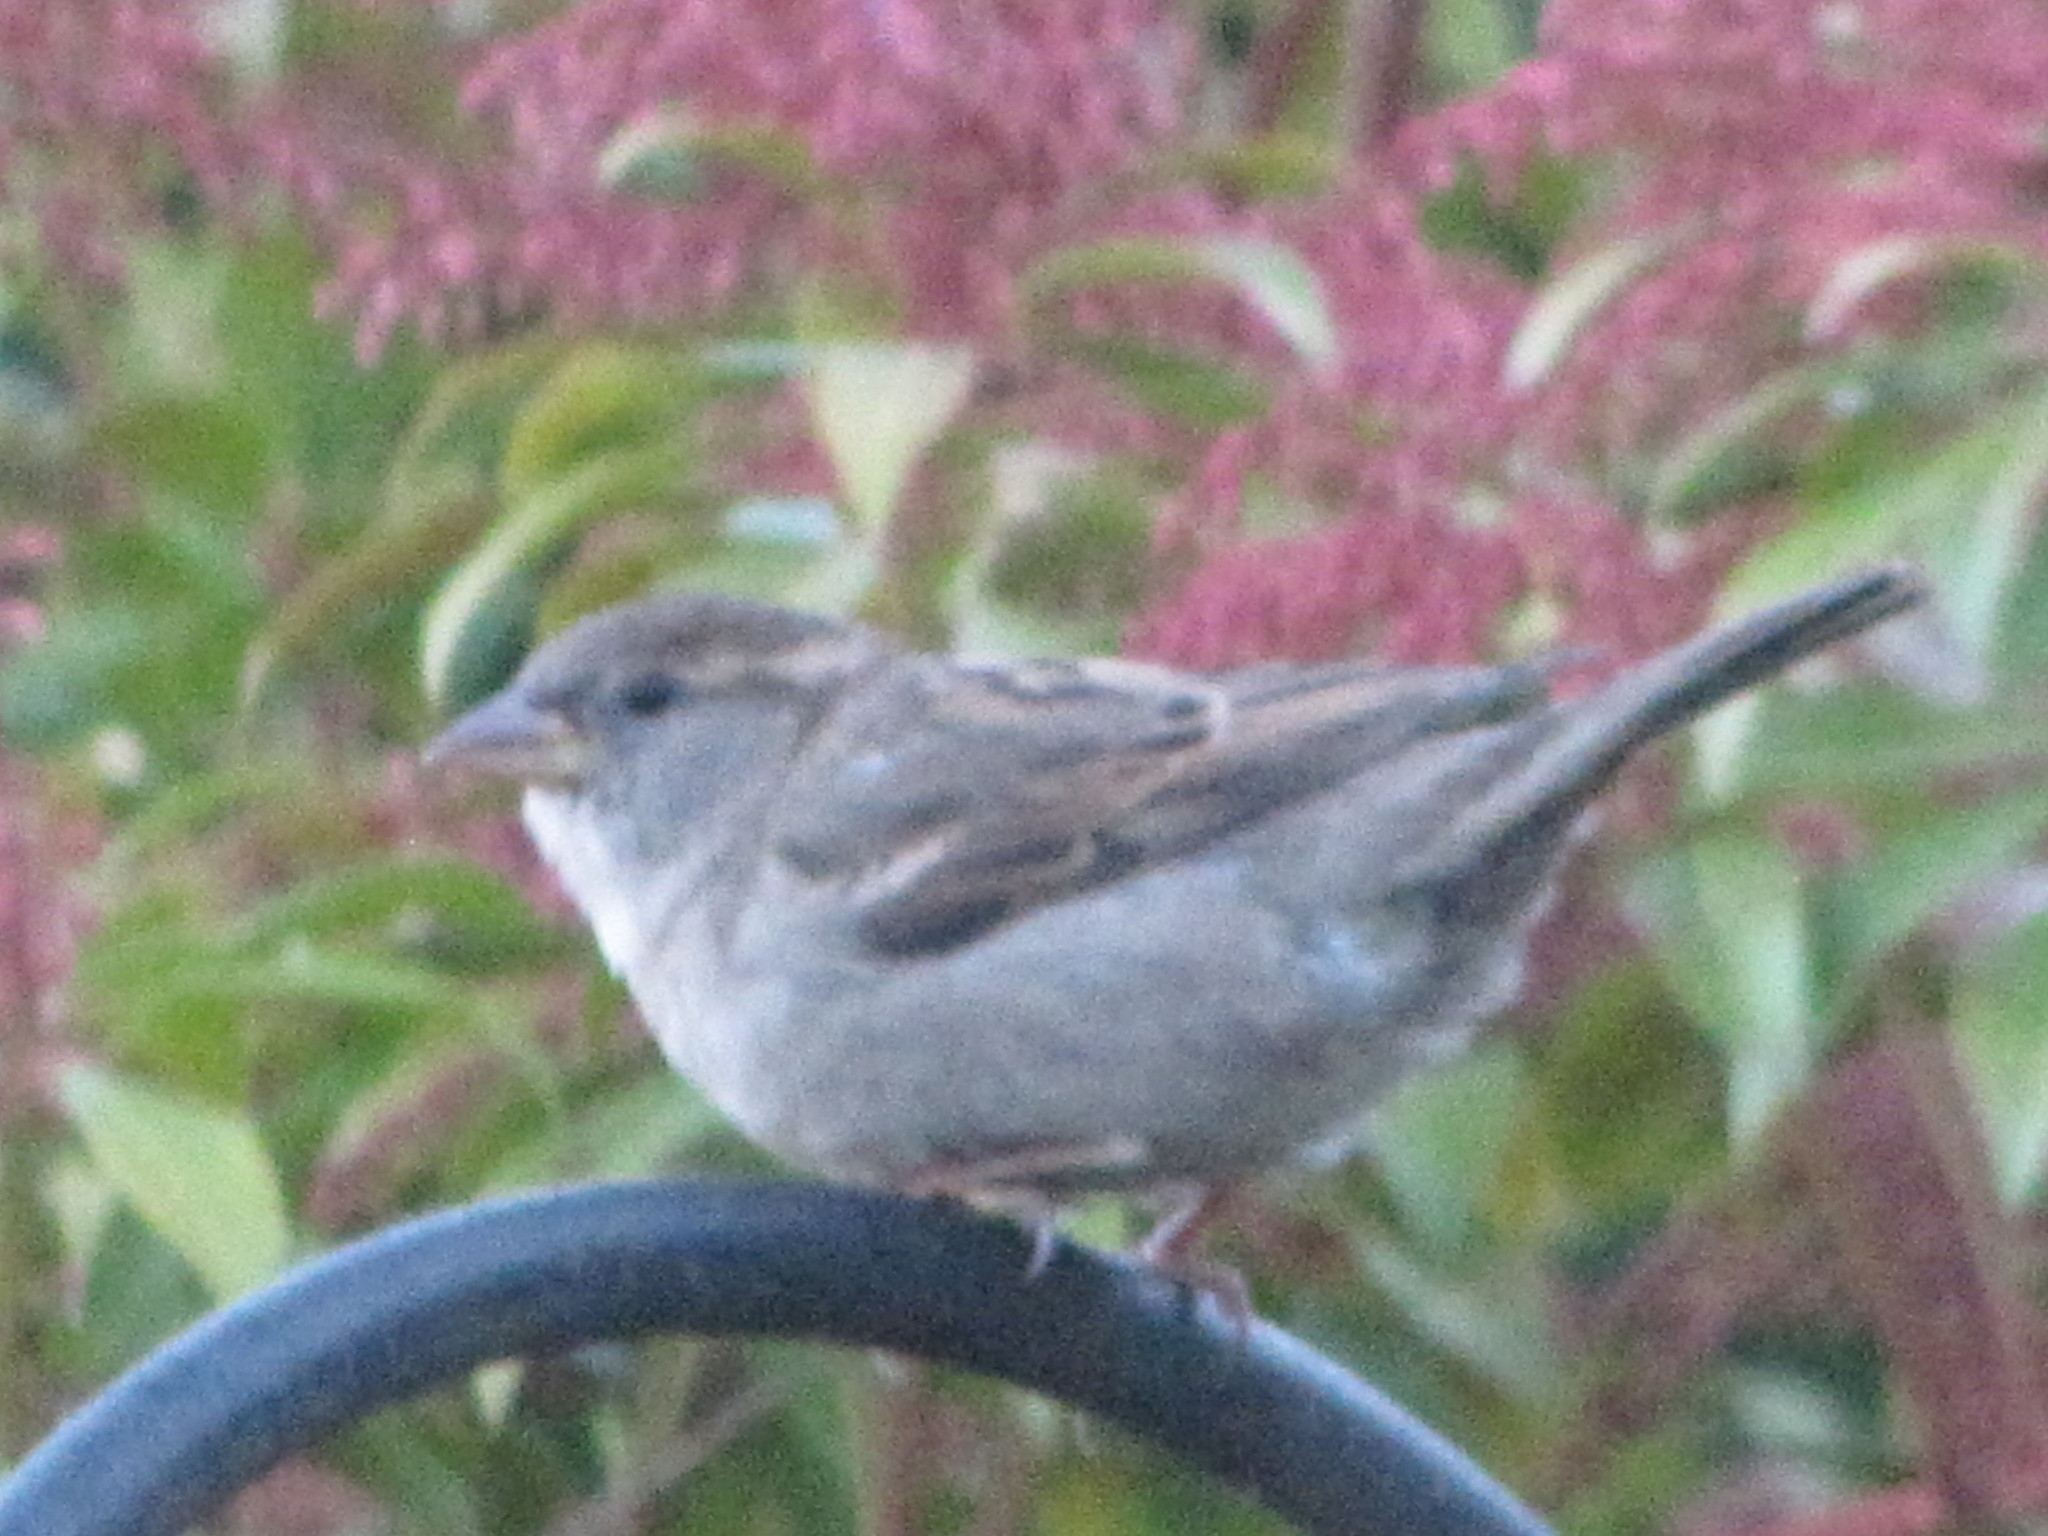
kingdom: Animalia
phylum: Chordata
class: Aves
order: Passeriformes
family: Passeridae
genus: Passer
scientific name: Passer domesticus
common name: House sparrow
